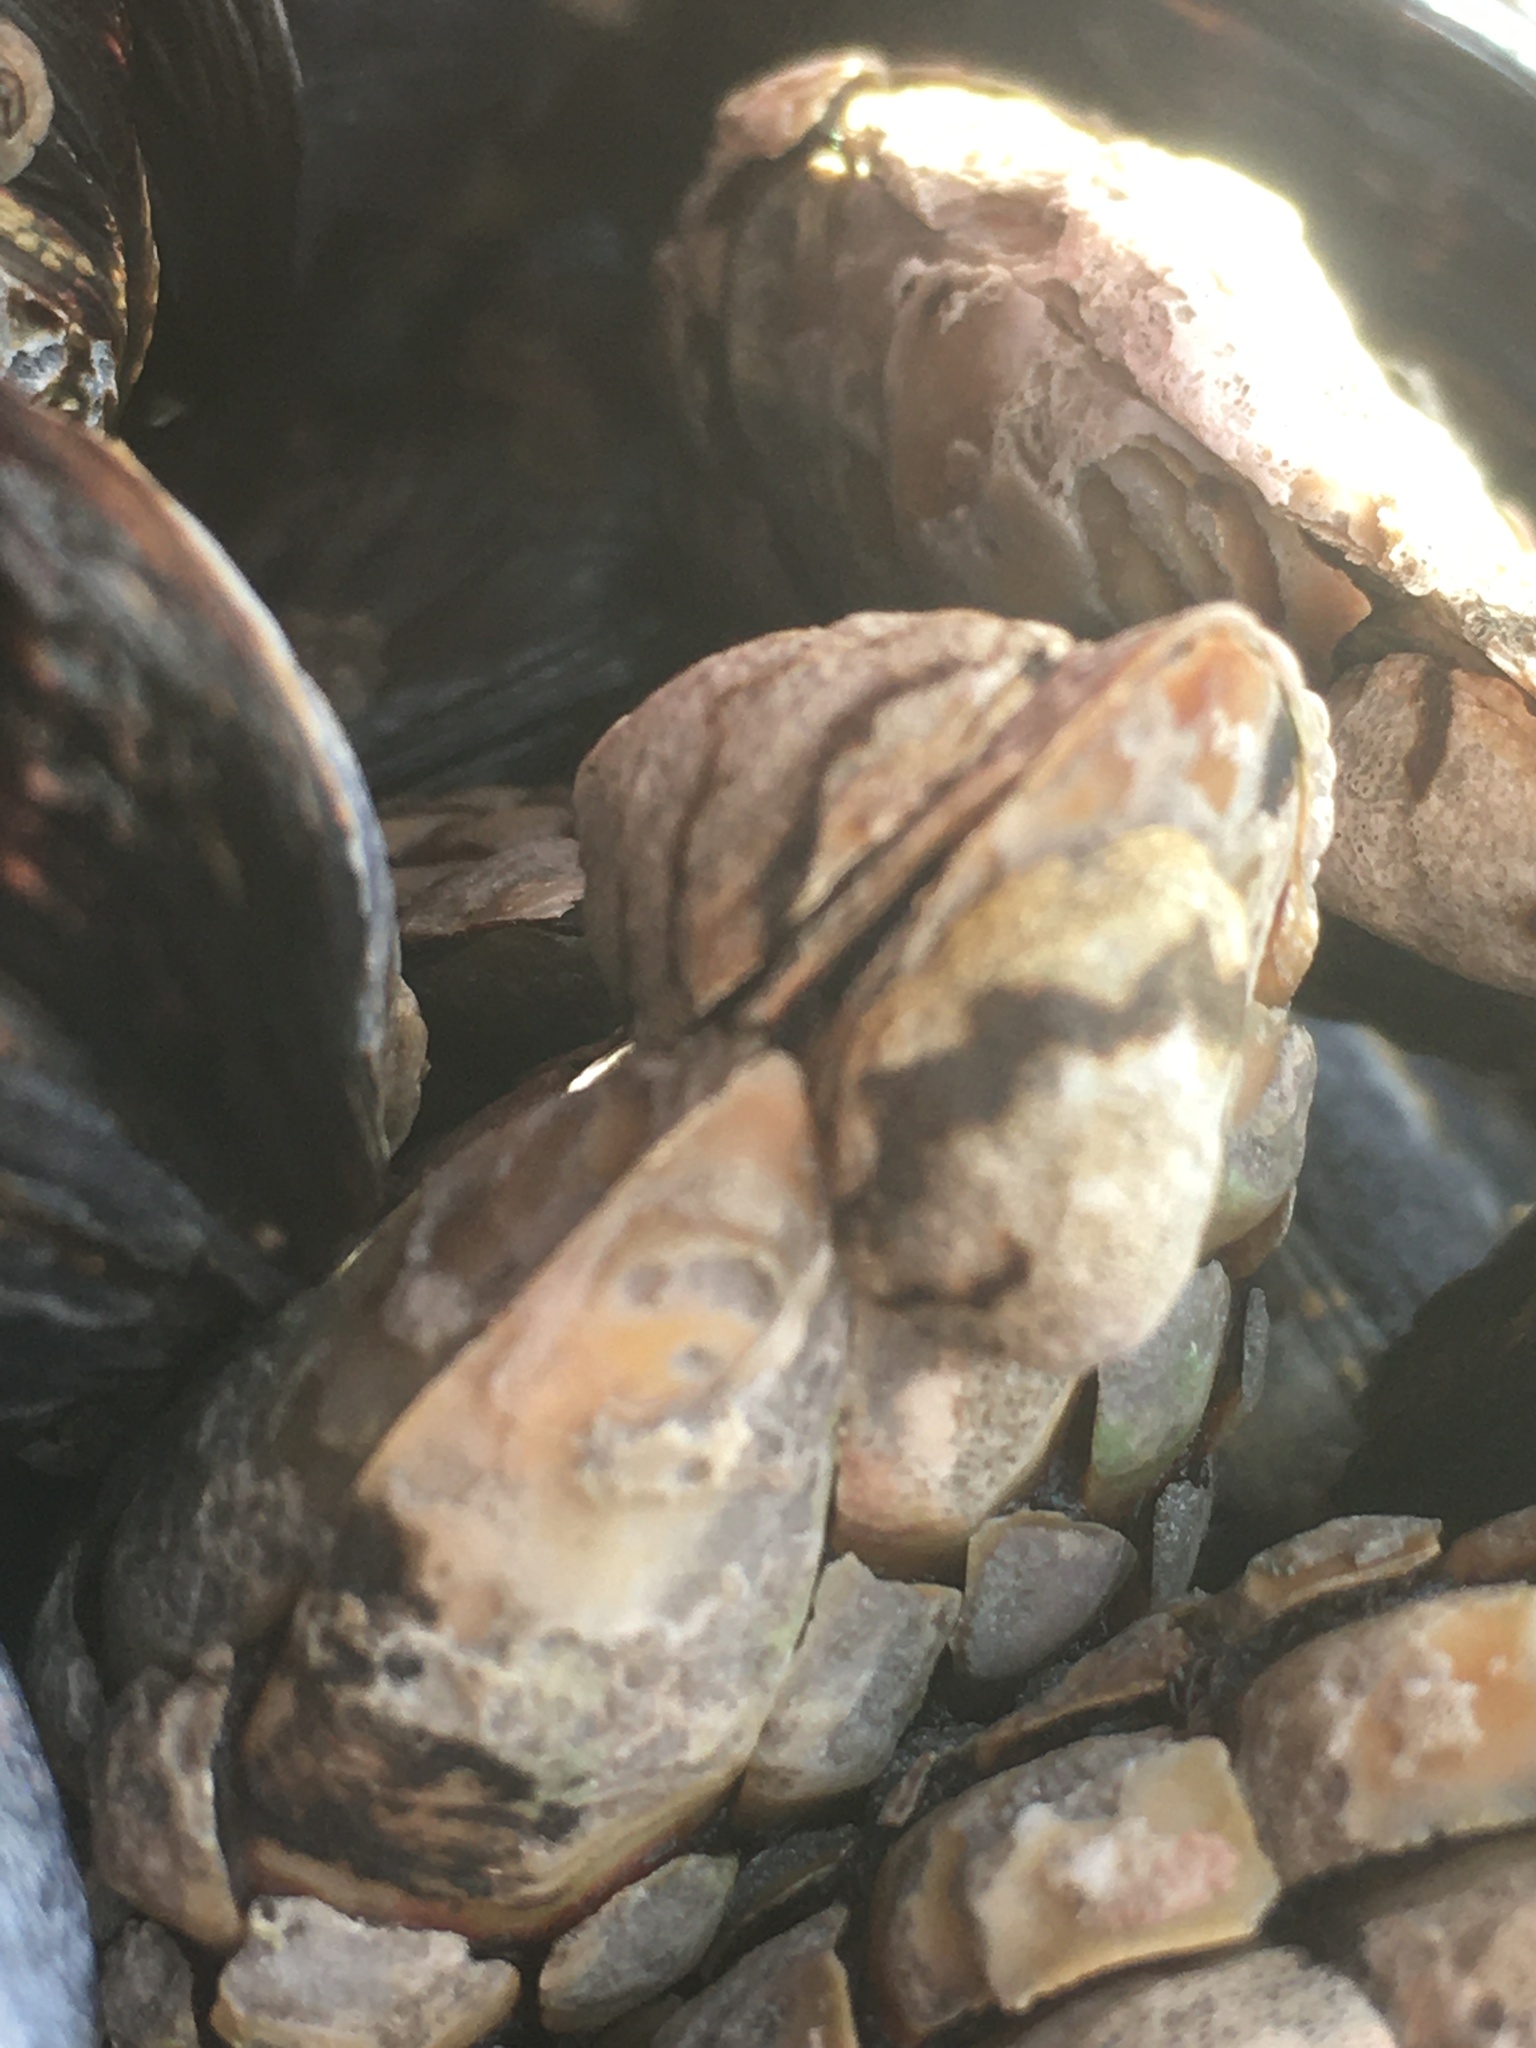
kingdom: Animalia
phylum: Mollusca
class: Gastropoda
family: Lottiidae
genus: Lottia
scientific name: Lottia digitalis
